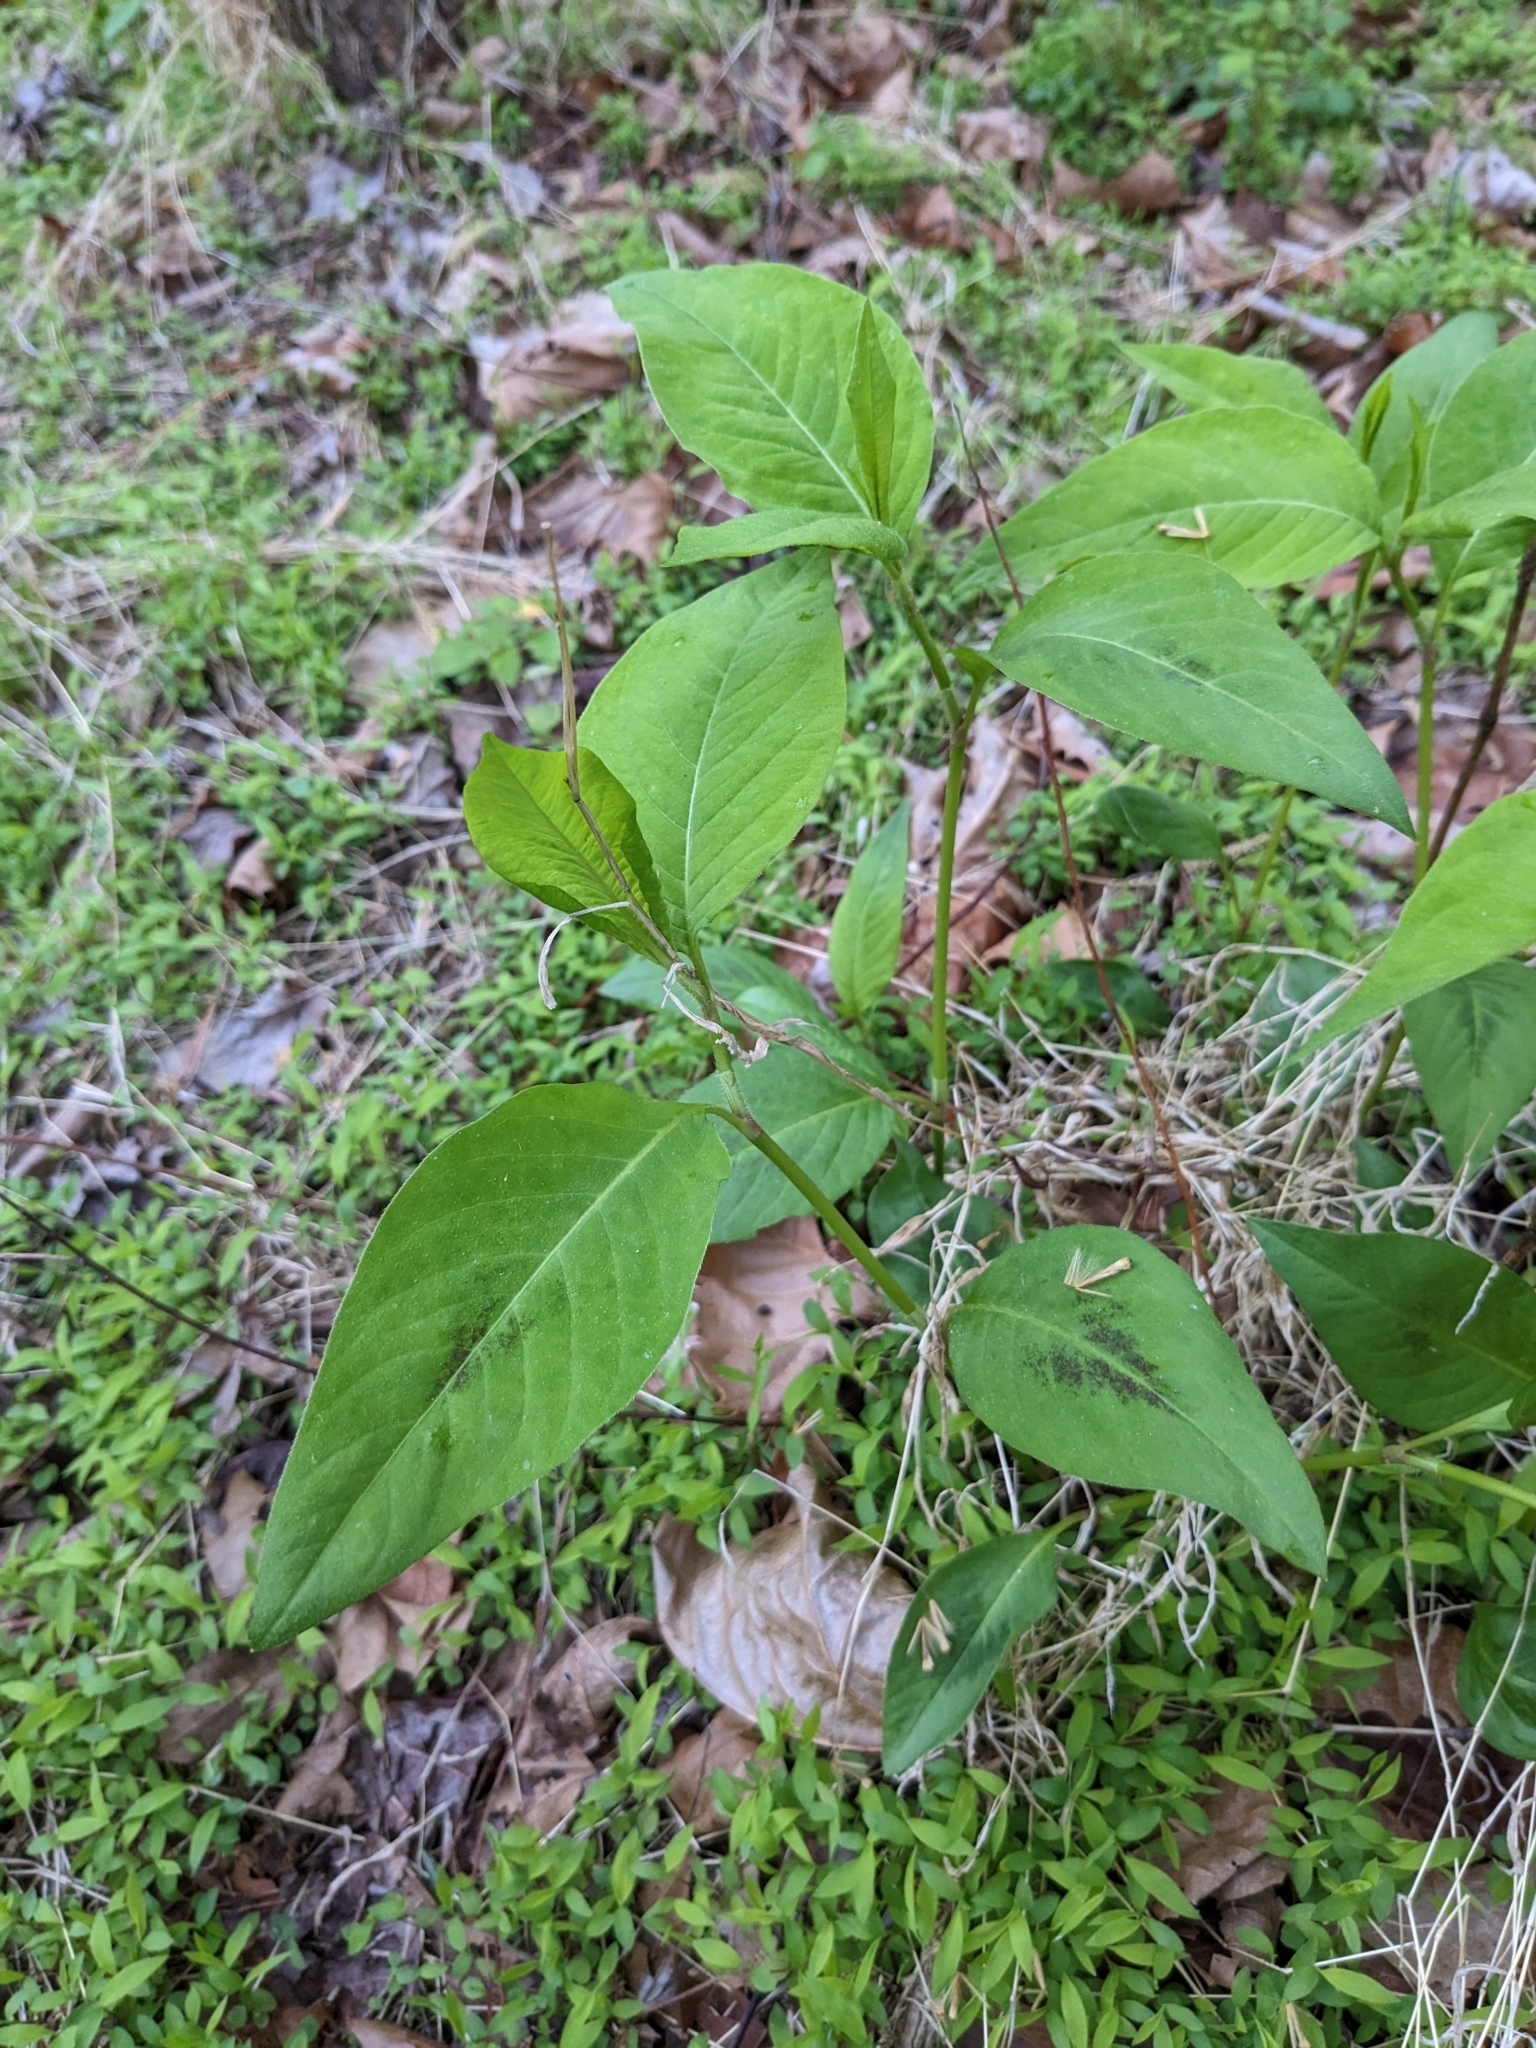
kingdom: Plantae
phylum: Tracheophyta
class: Magnoliopsida
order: Caryophyllales
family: Polygonaceae
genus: Persicaria
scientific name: Persicaria virginiana
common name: Jumpseed
